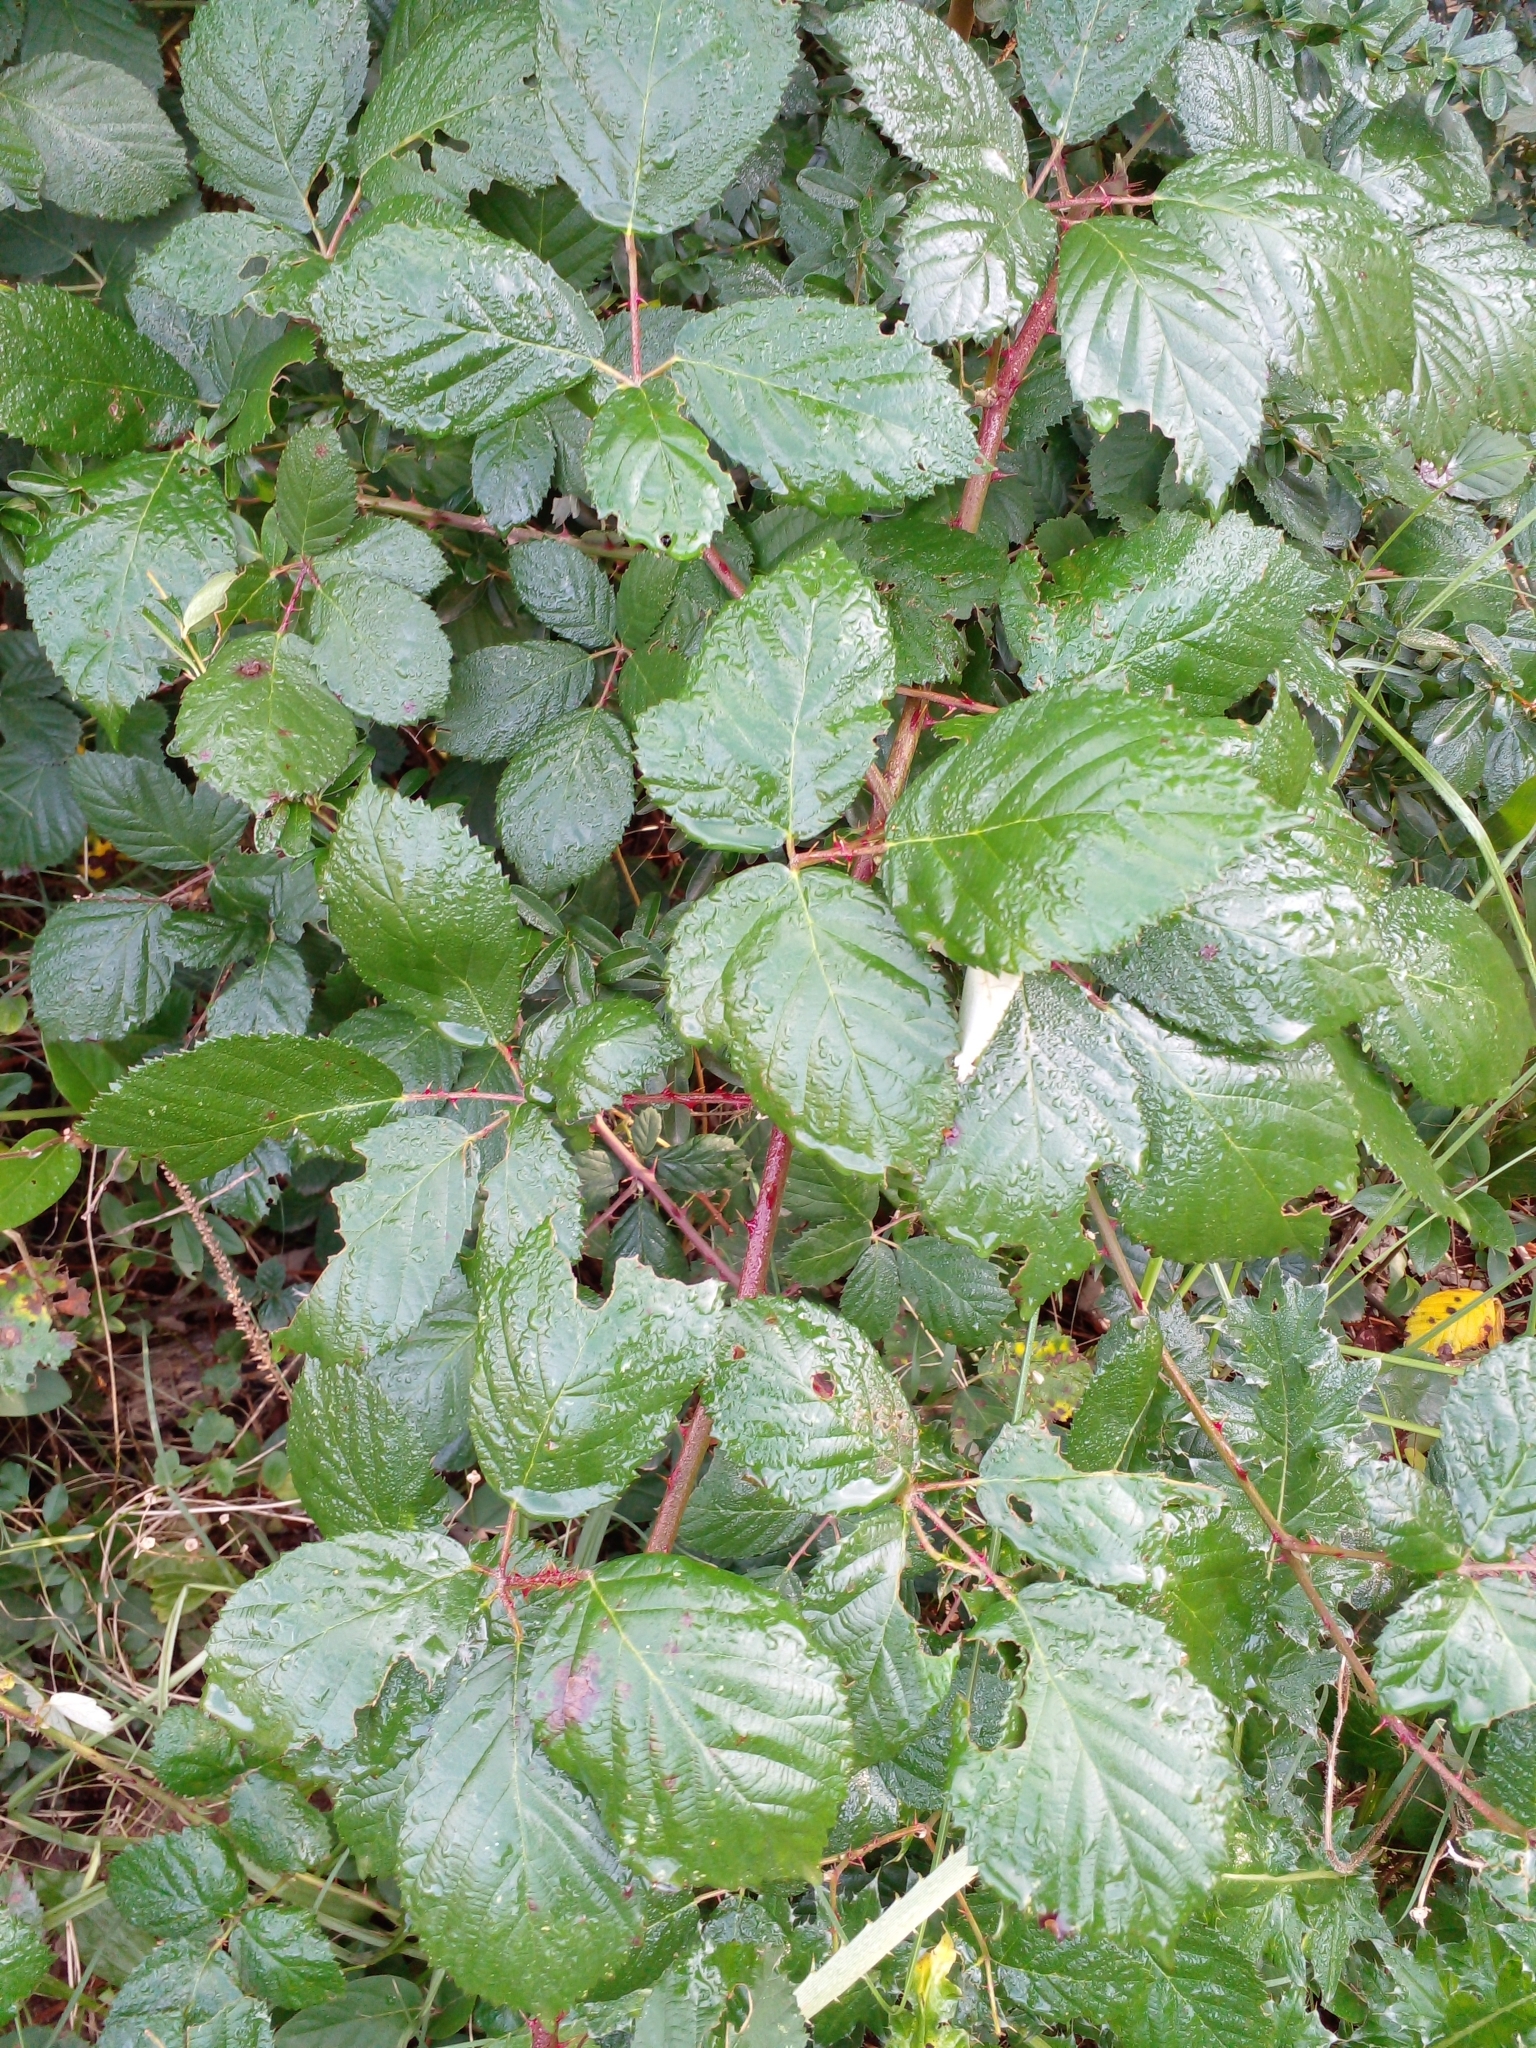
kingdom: Plantae
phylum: Tracheophyta
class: Magnoliopsida
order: Rosales
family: Rosaceae
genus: Rubus
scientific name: Rubus ulmifolius
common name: Elmleaf blackberry
